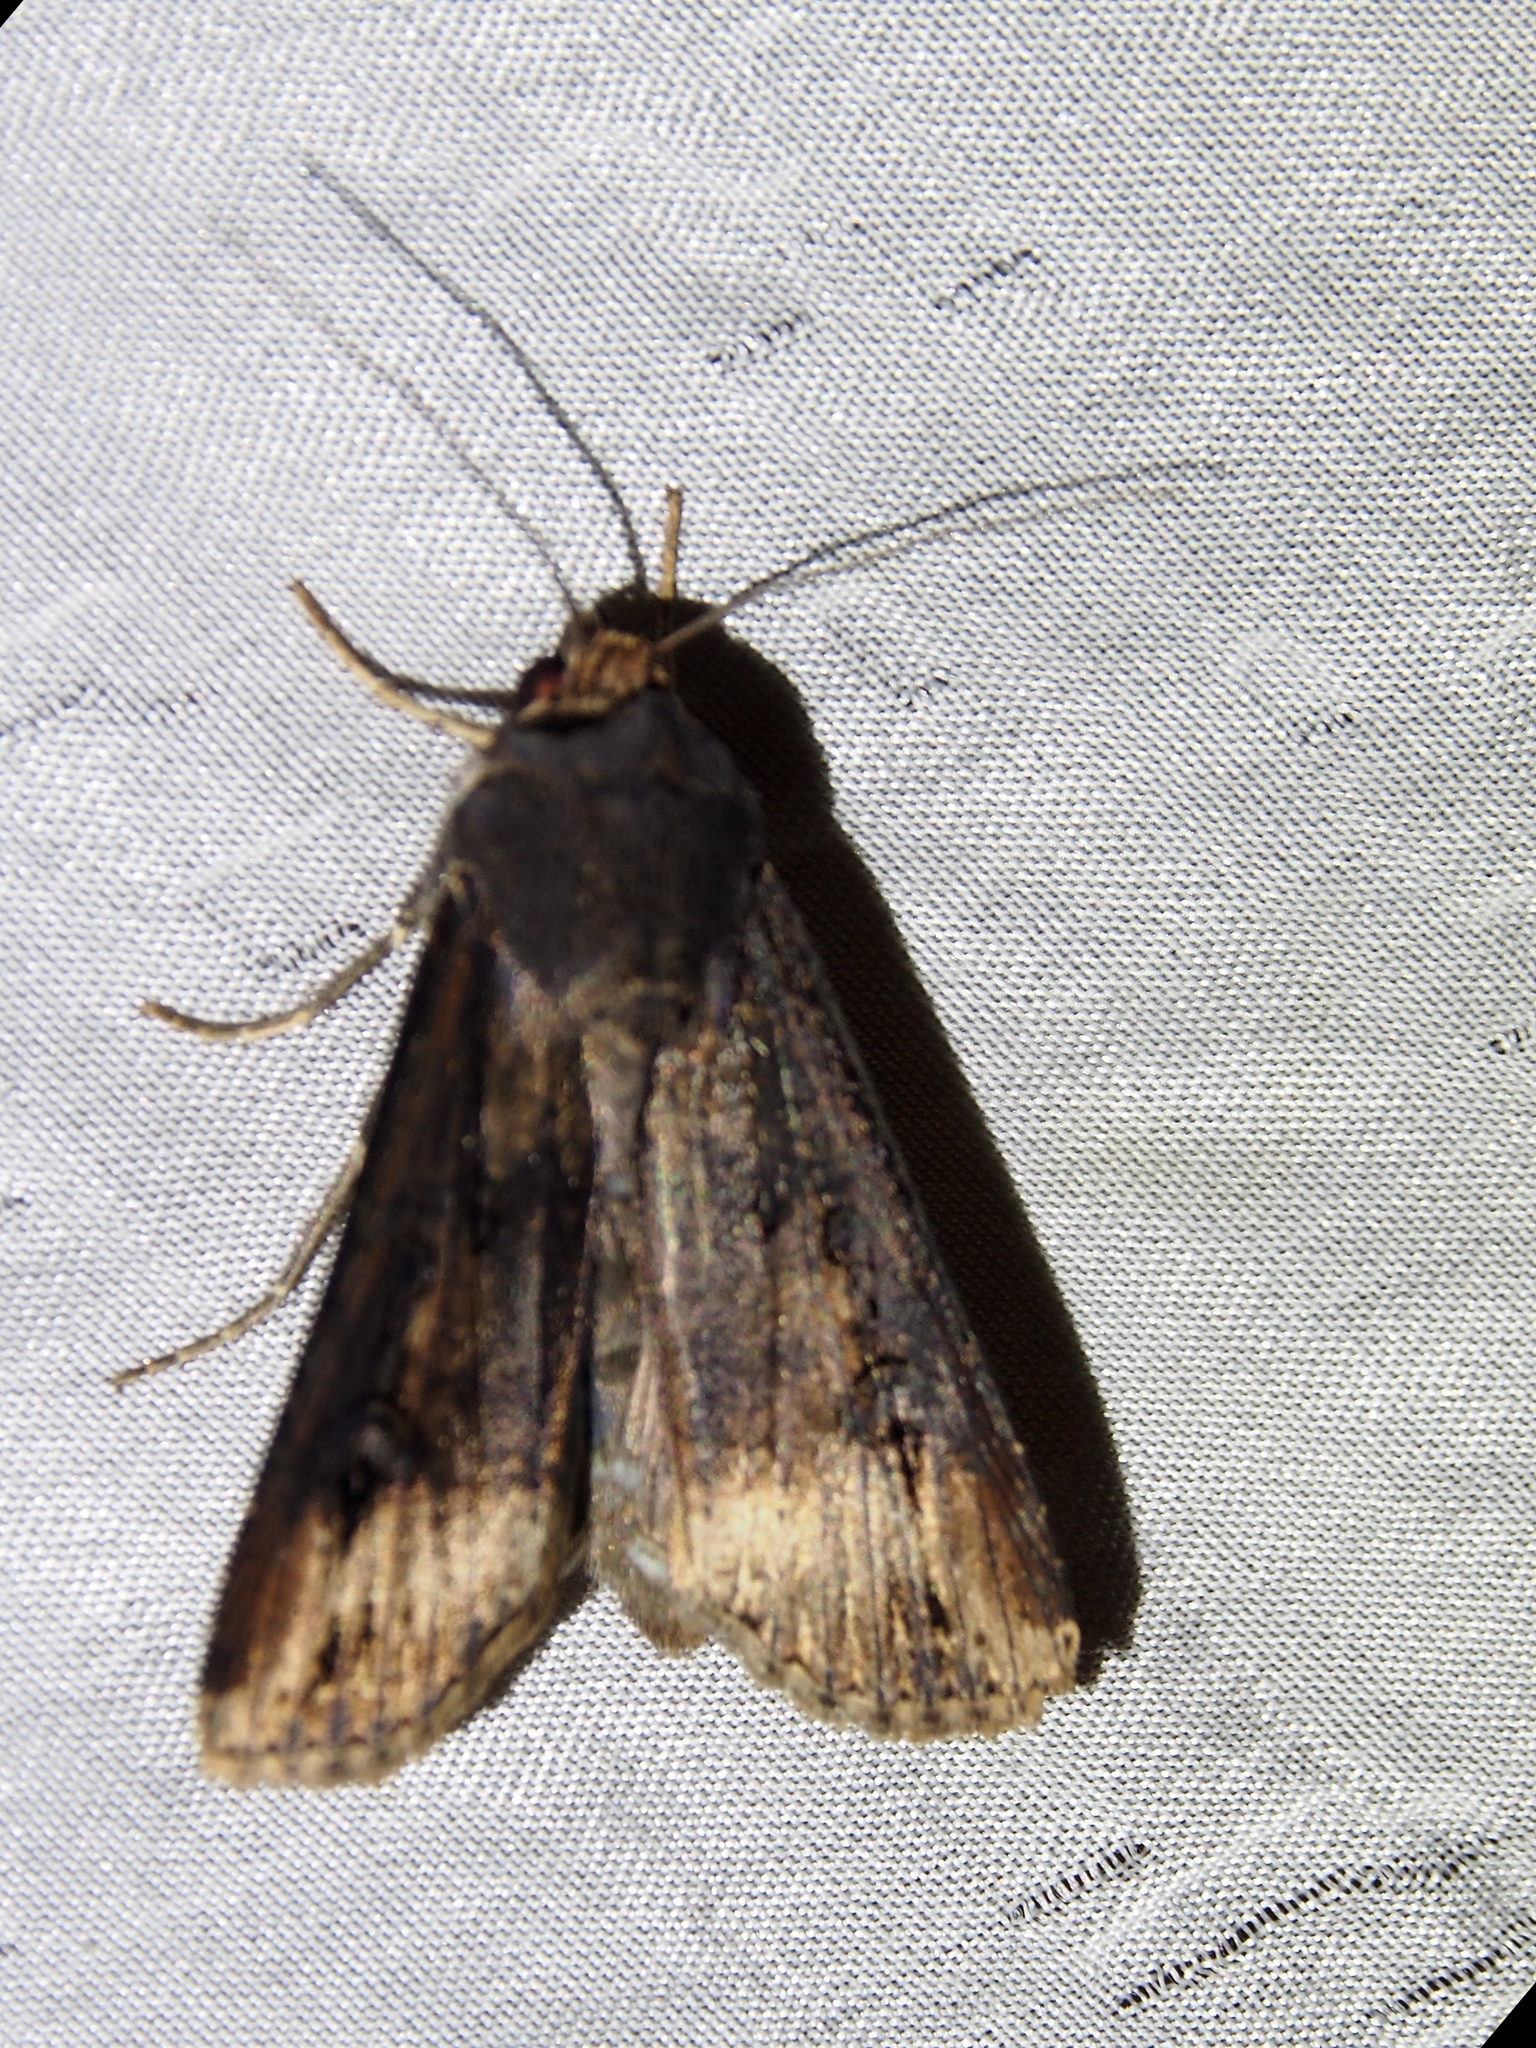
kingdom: Animalia
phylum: Arthropoda
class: Insecta
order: Lepidoptera
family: Noctuidae
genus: Agrotis
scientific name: Agrotis ipsilon
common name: Dark sword-grass
